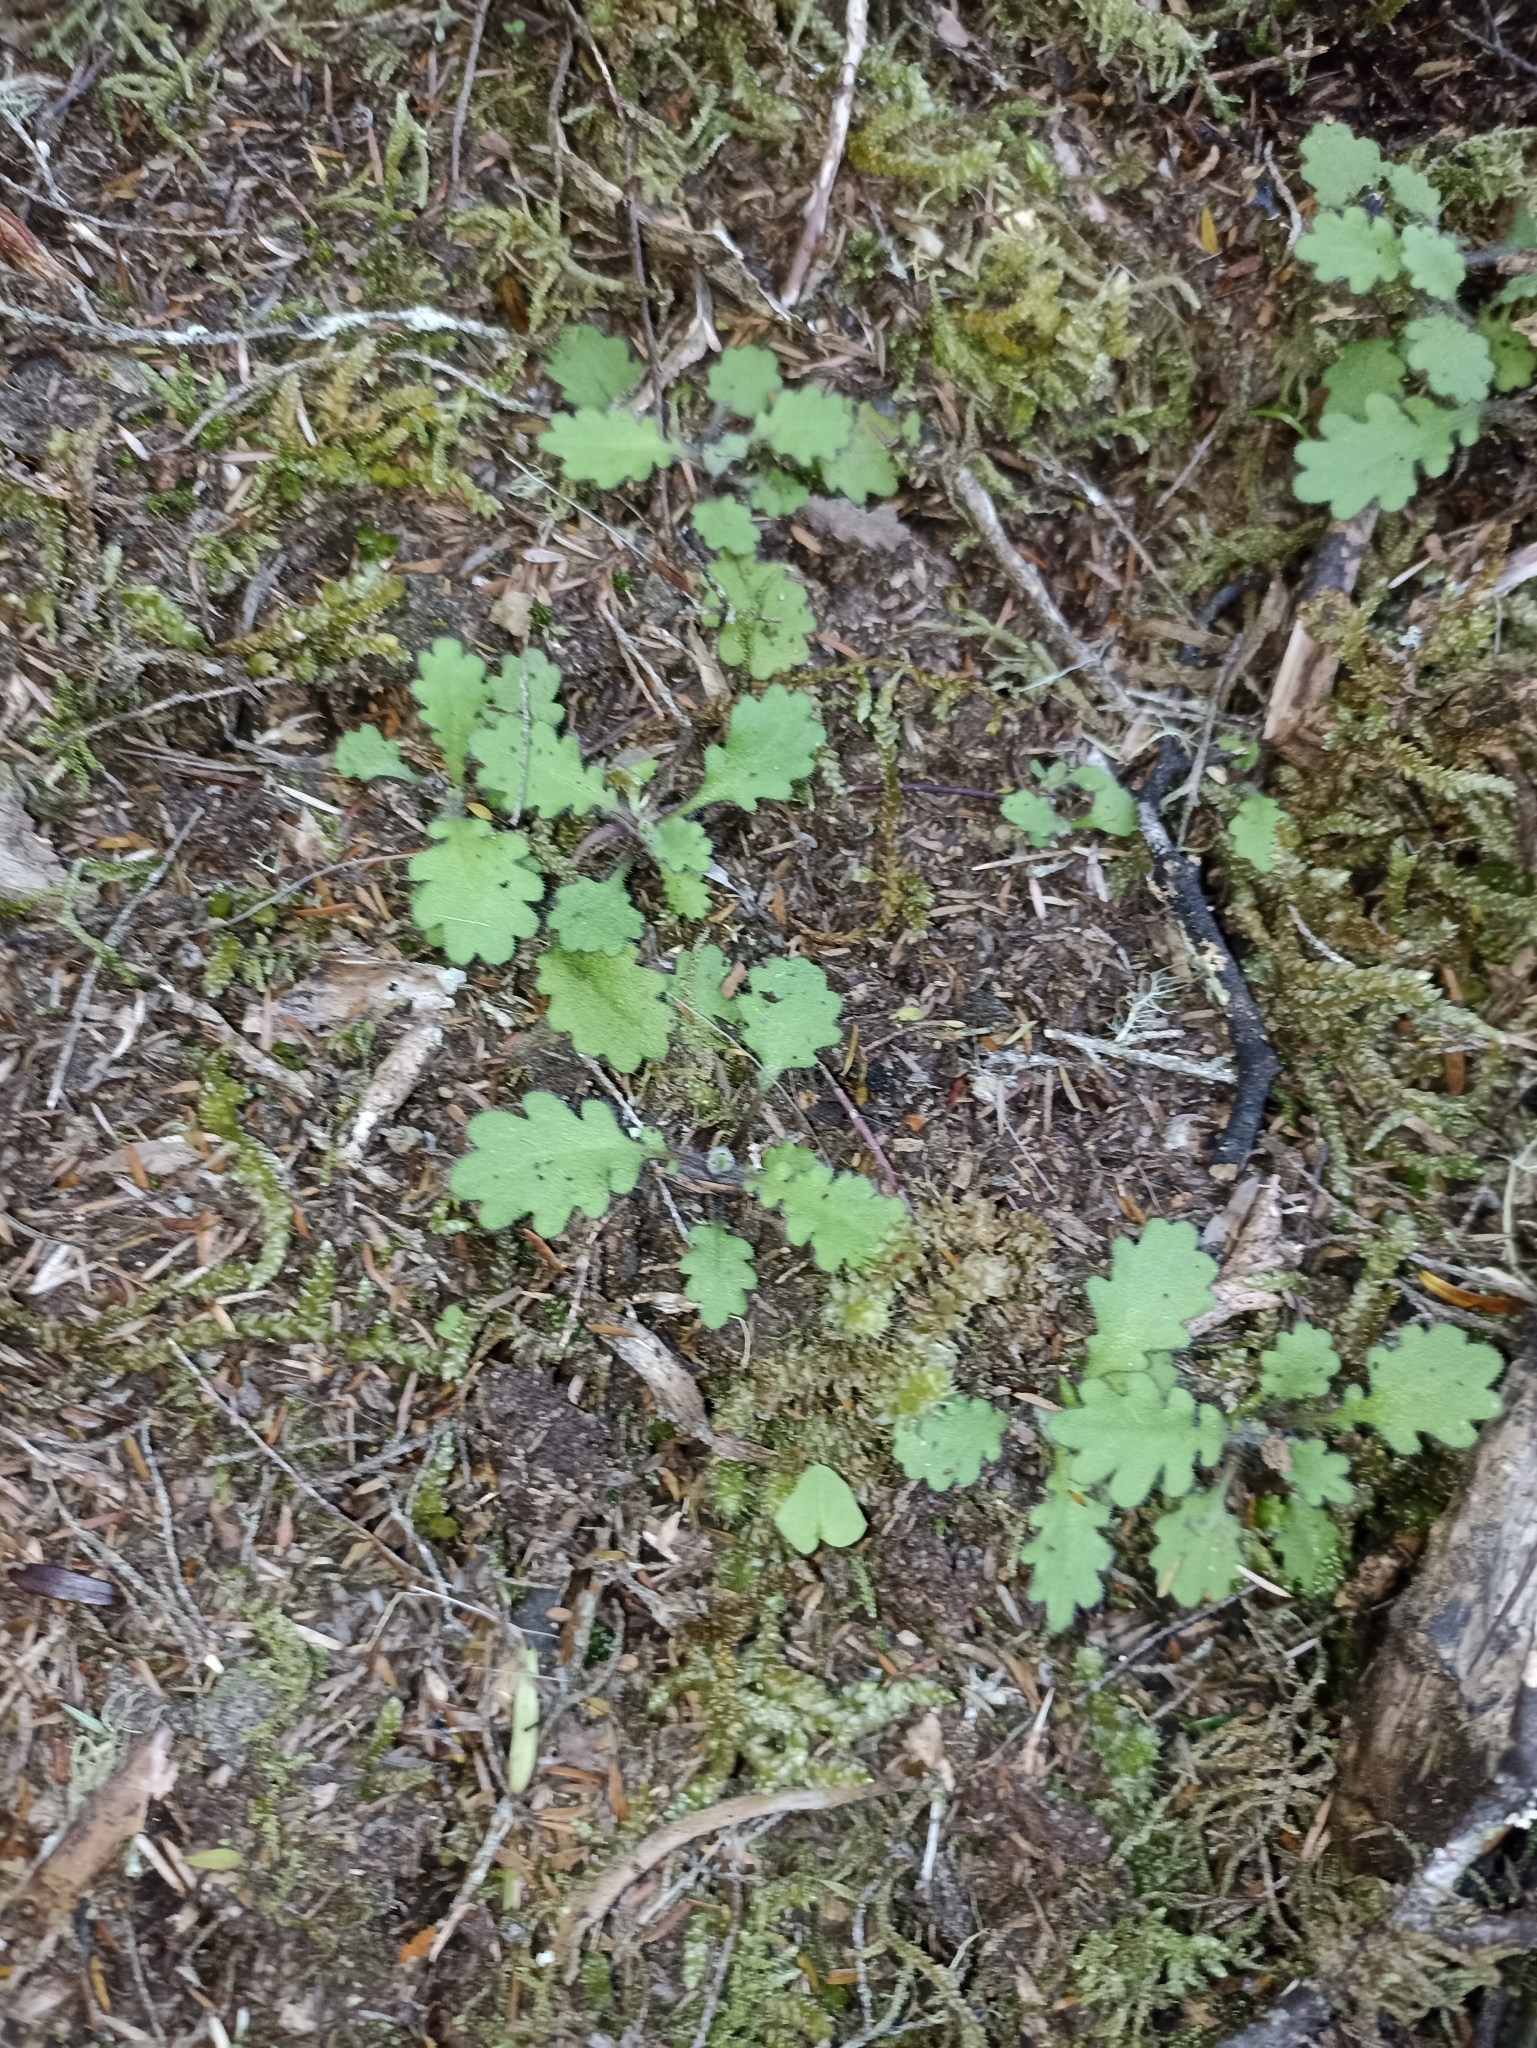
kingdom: Plantae
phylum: Tracheophyta
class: Magnoliopsida
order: Asterales
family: Asteraceae
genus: Lagenophora
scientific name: Lagenophora pinnatifida
